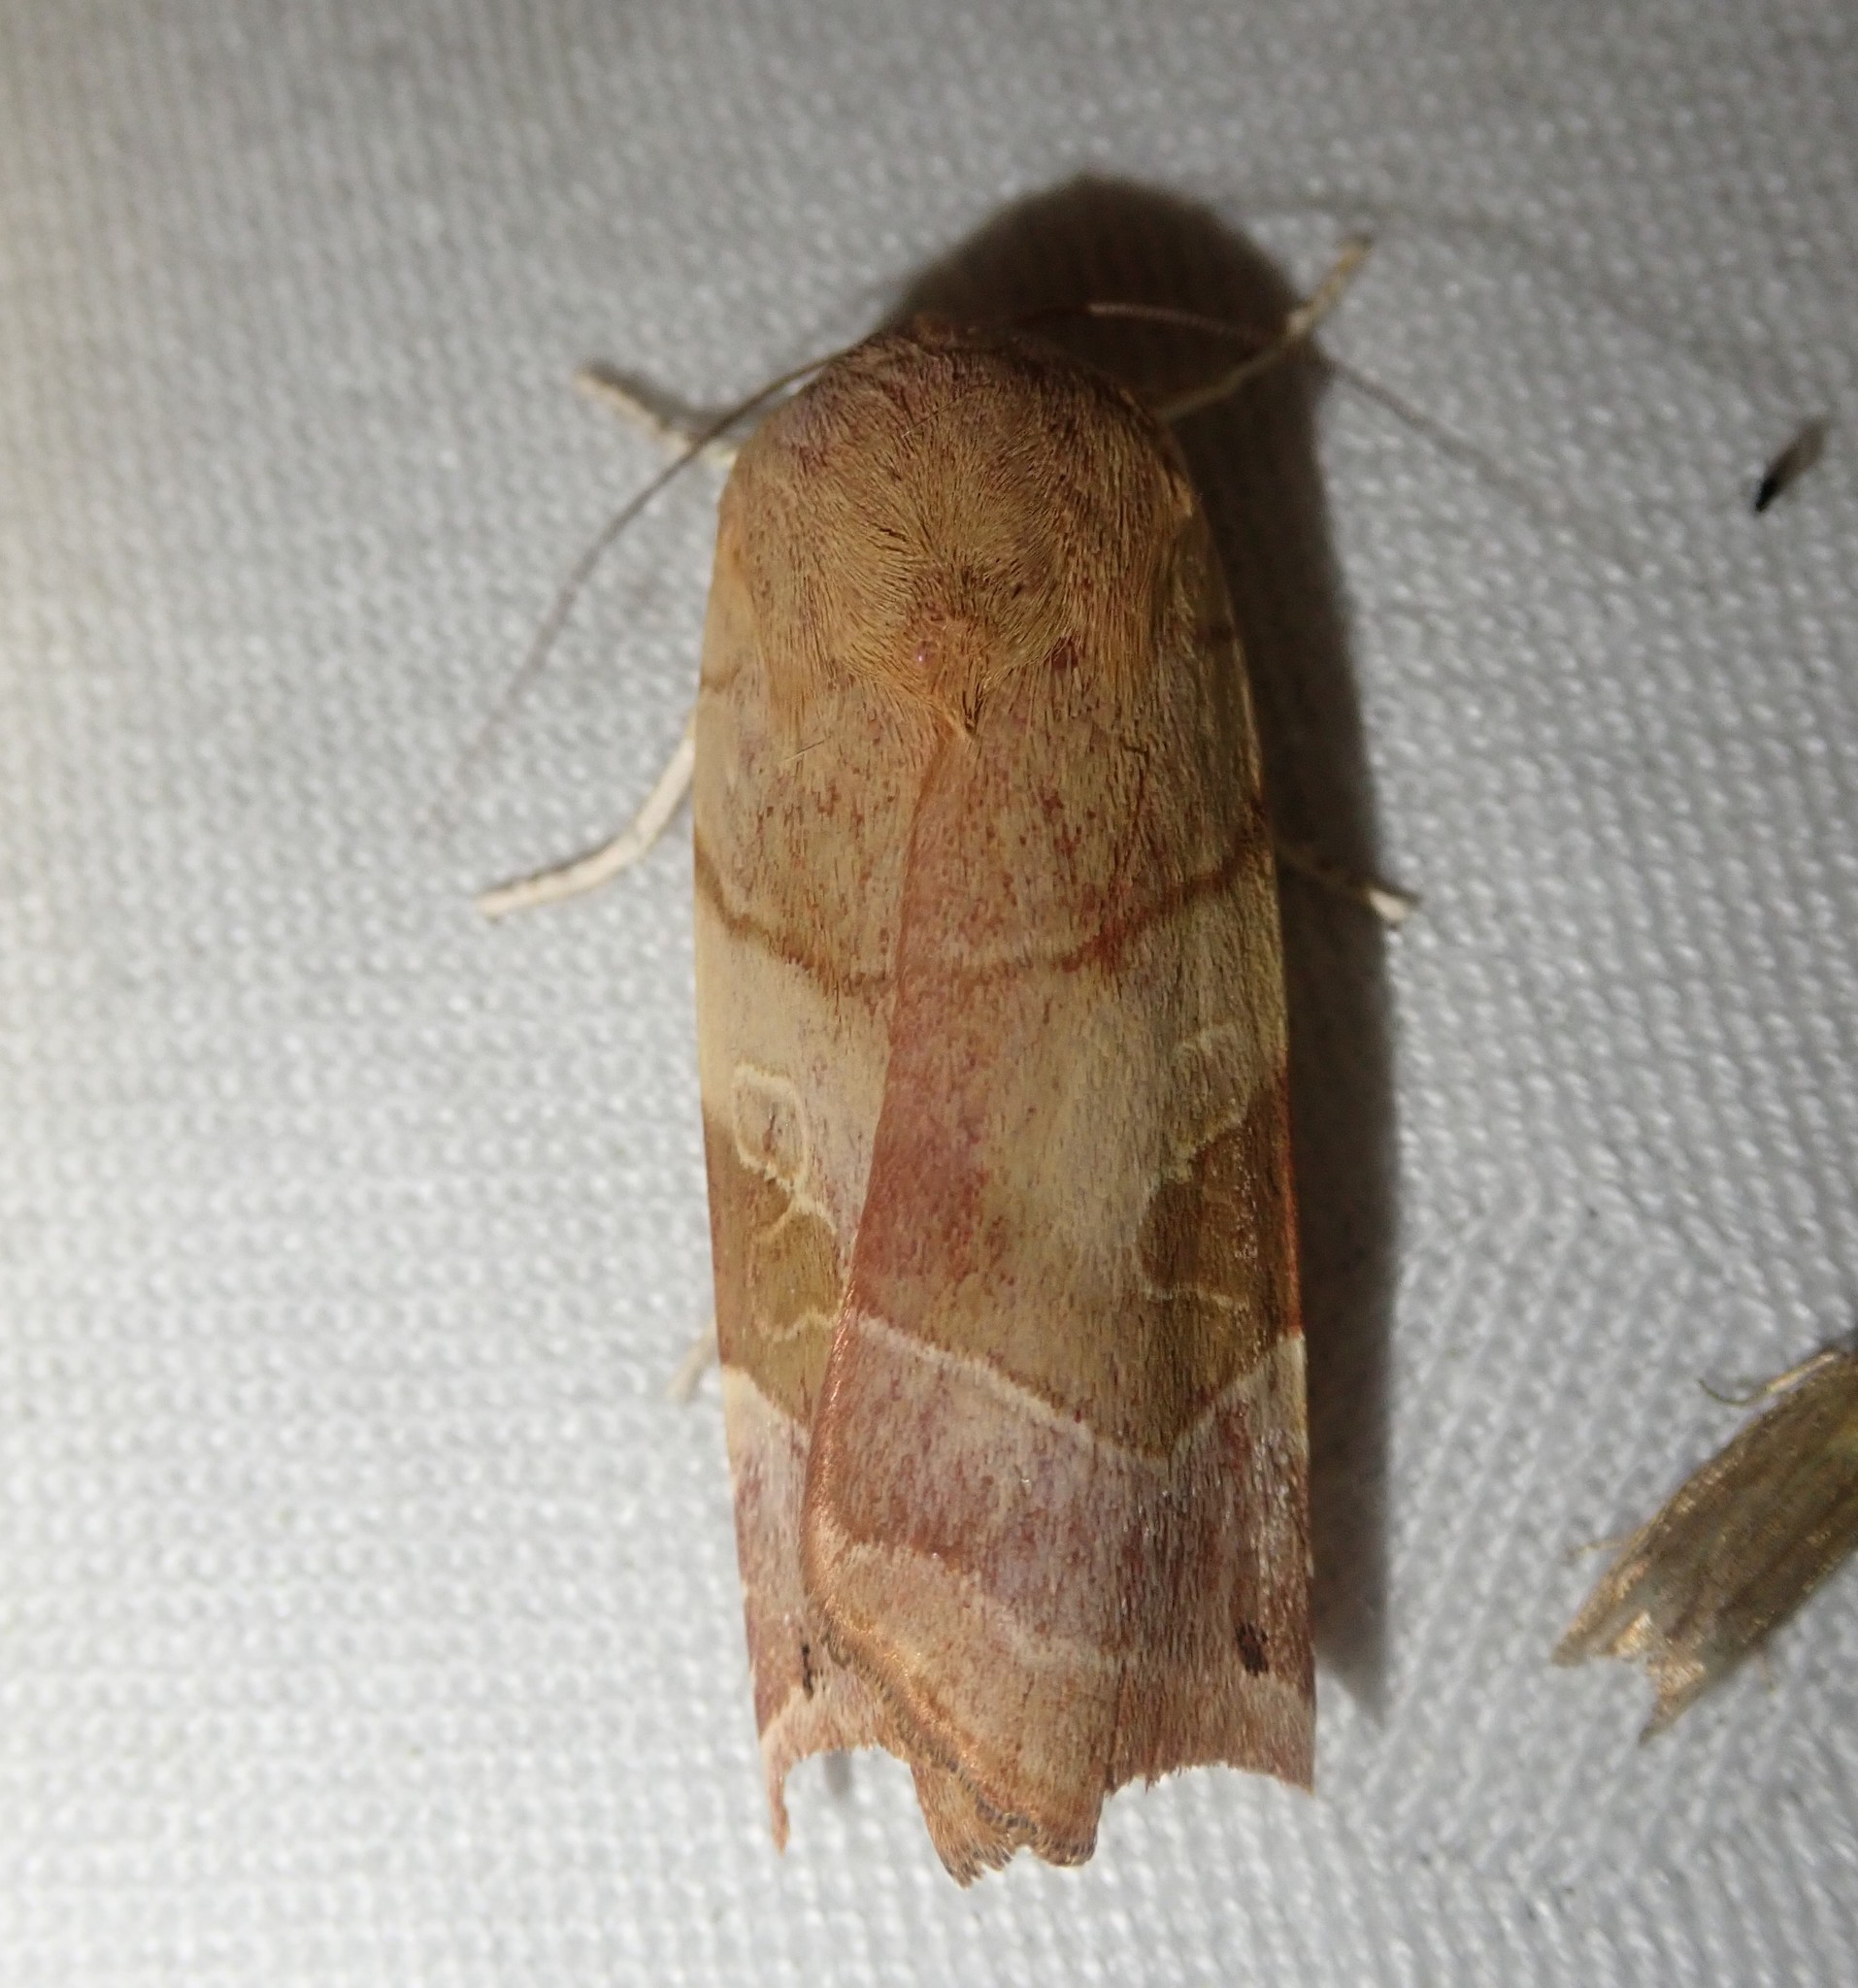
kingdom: Animalia
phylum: Arthropoda
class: Insecta
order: Lepidoptera
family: Noctuidae
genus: Noctua
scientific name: Noctua fimbriata
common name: Broad-bordered yellow underwing
